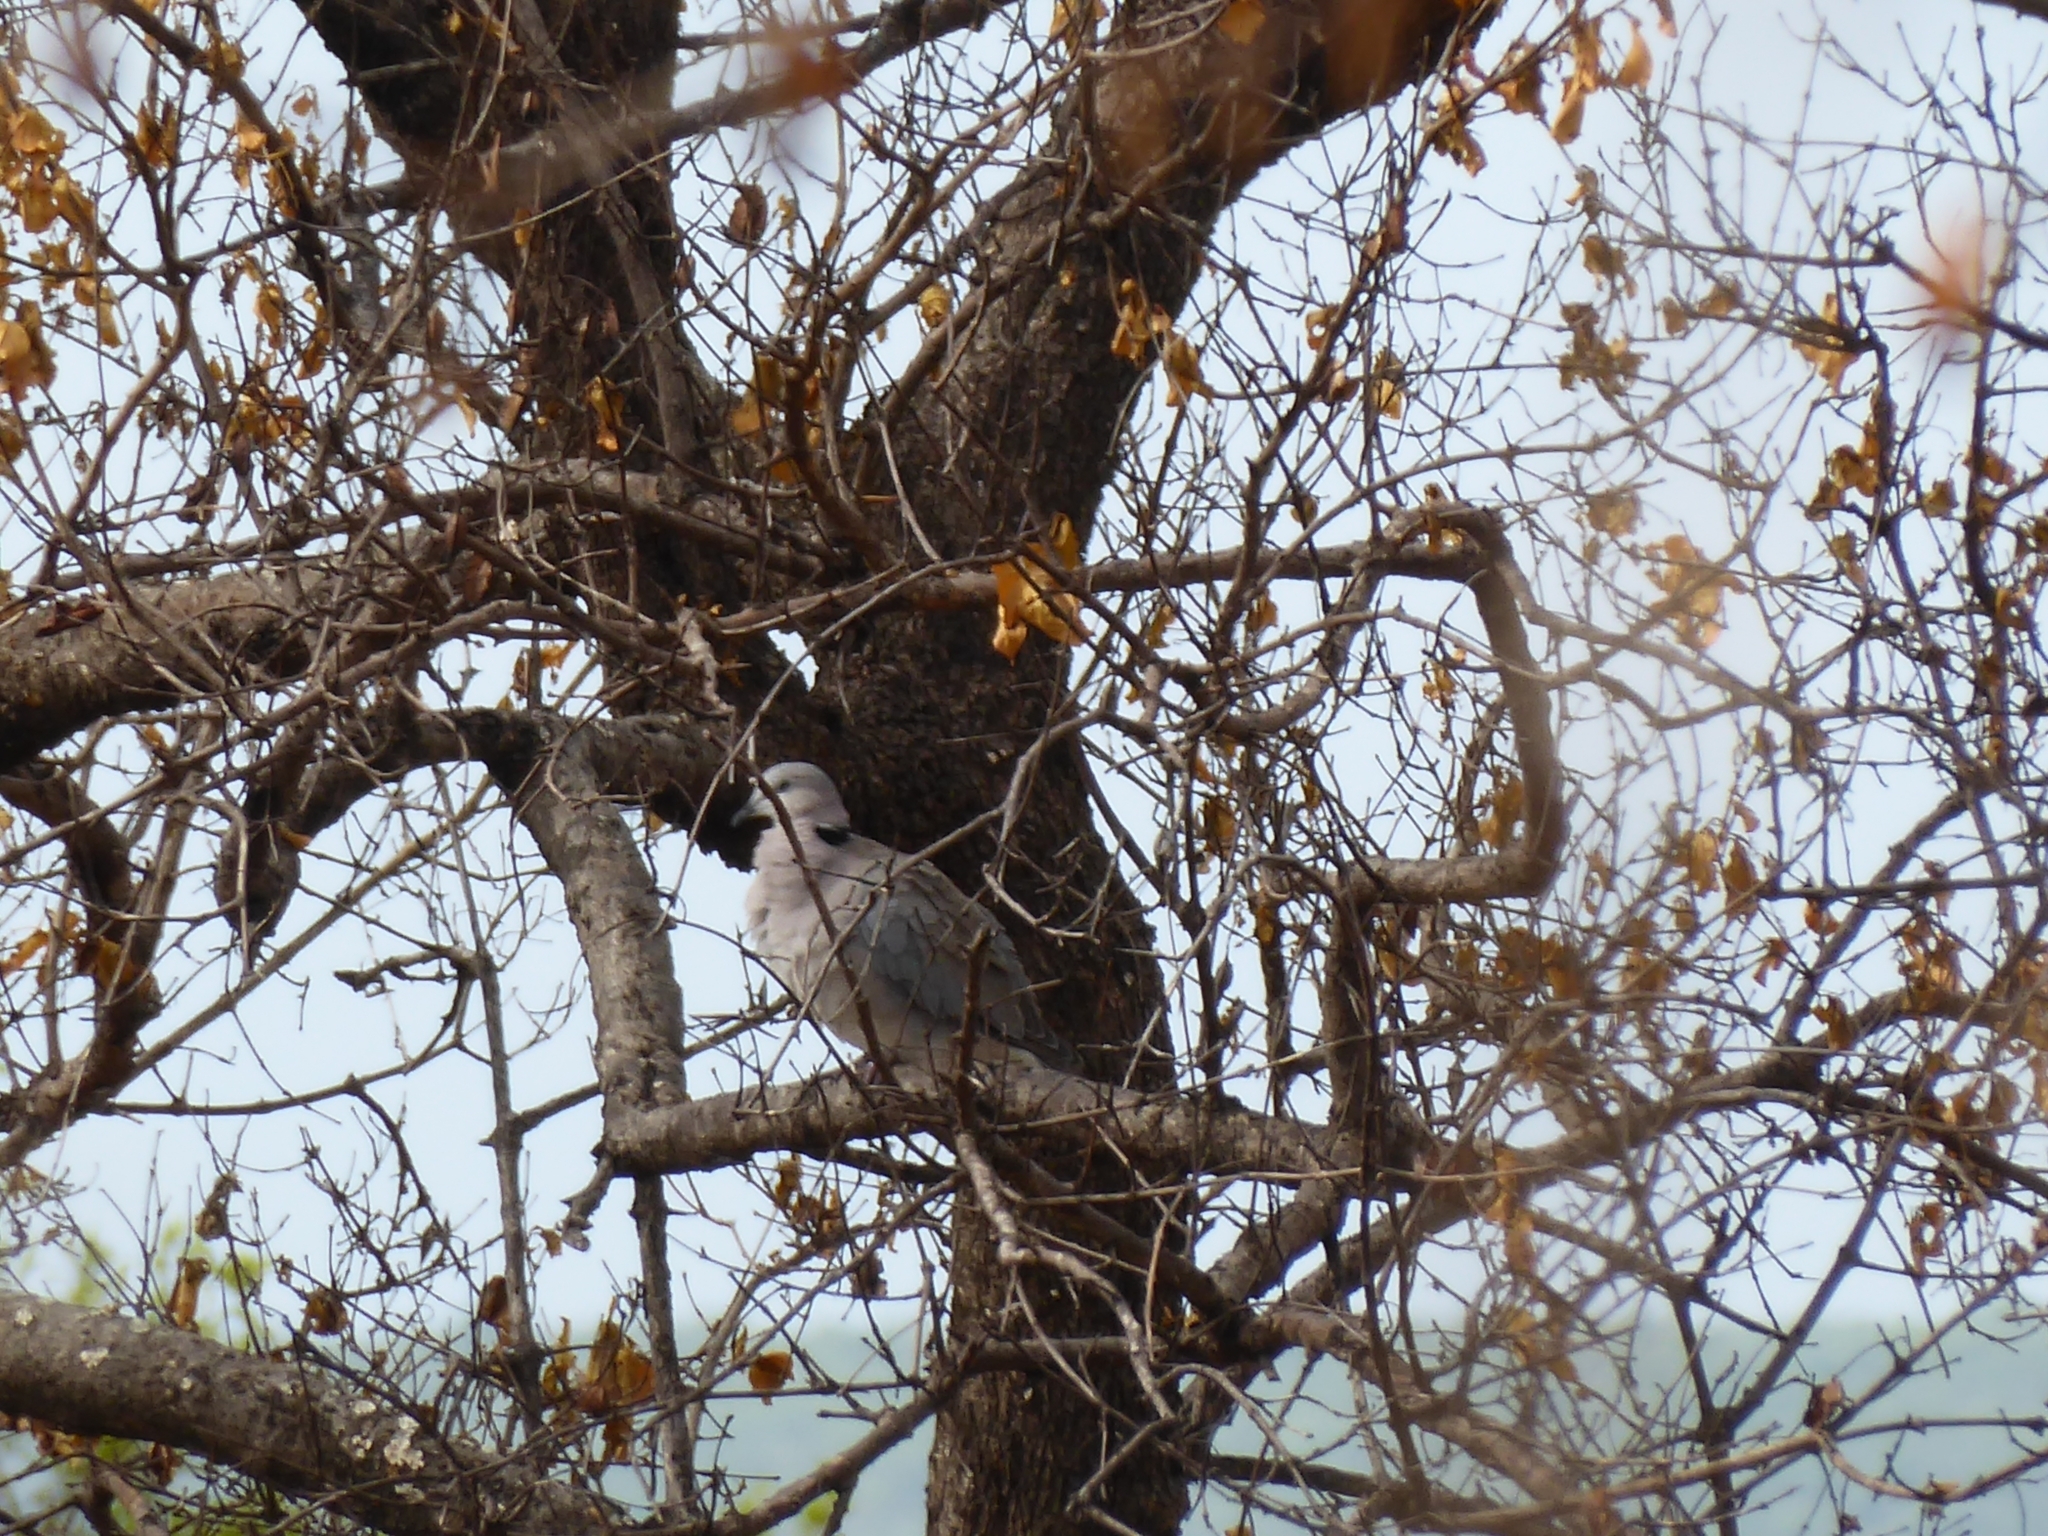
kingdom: Animalia
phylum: Chordata
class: Aves
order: Columbiformes
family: Columbidae
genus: Streptopelia
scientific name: Streptopelia capicola
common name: Ring-necked dove
